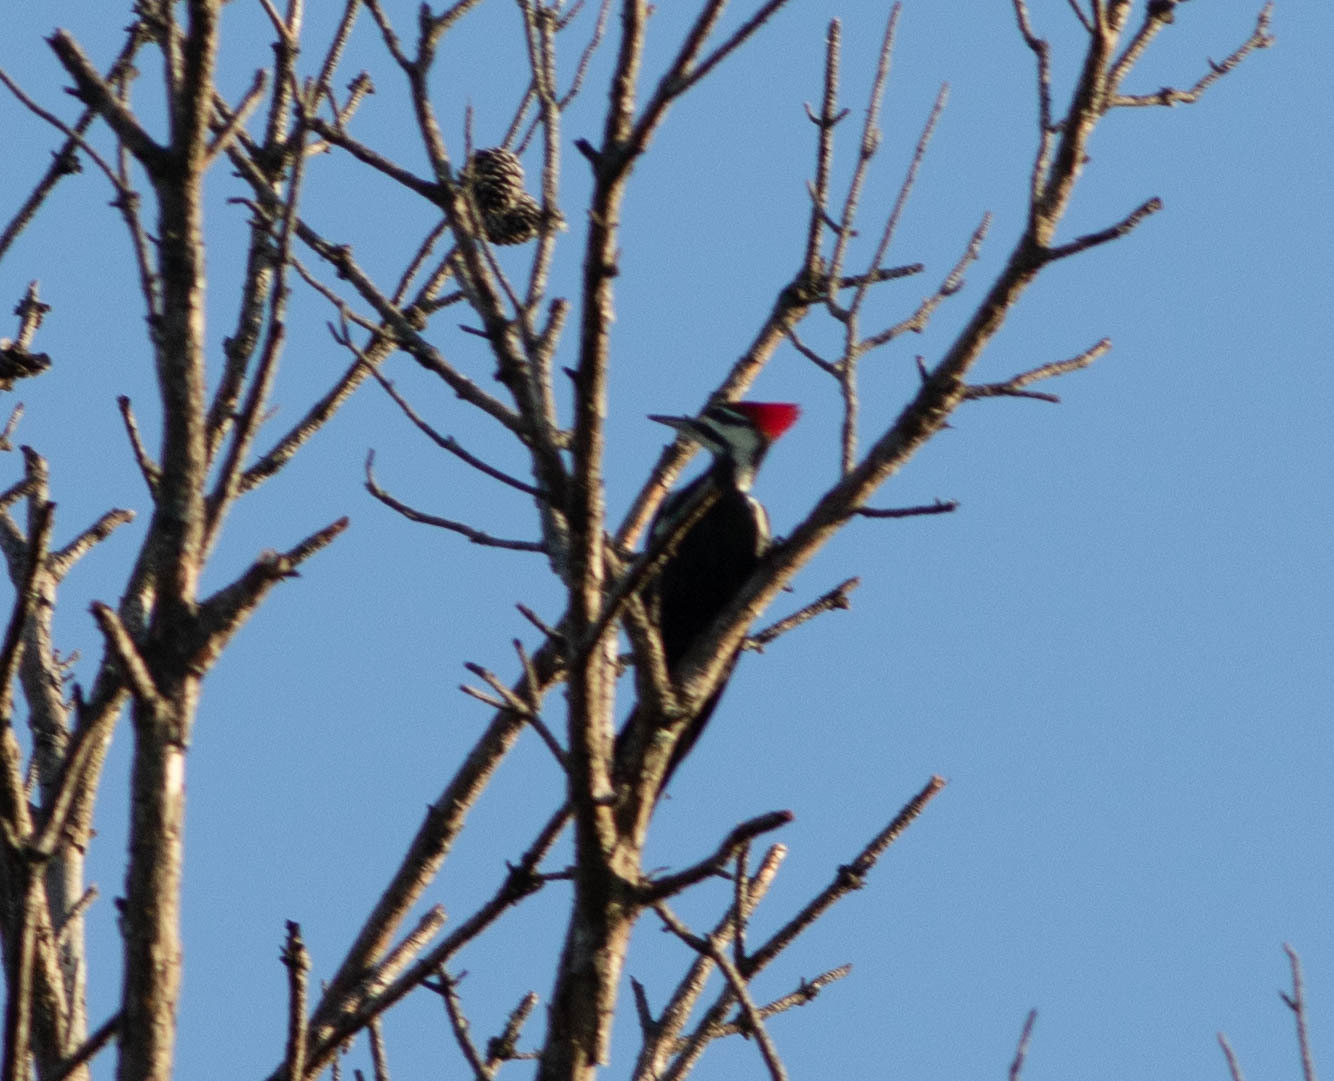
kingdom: Animalia
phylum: Chordata
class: Aves
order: Piciformes
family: Picidae
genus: Dryocopus
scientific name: Dryocopus pileatus
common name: Pileated woodpecker
